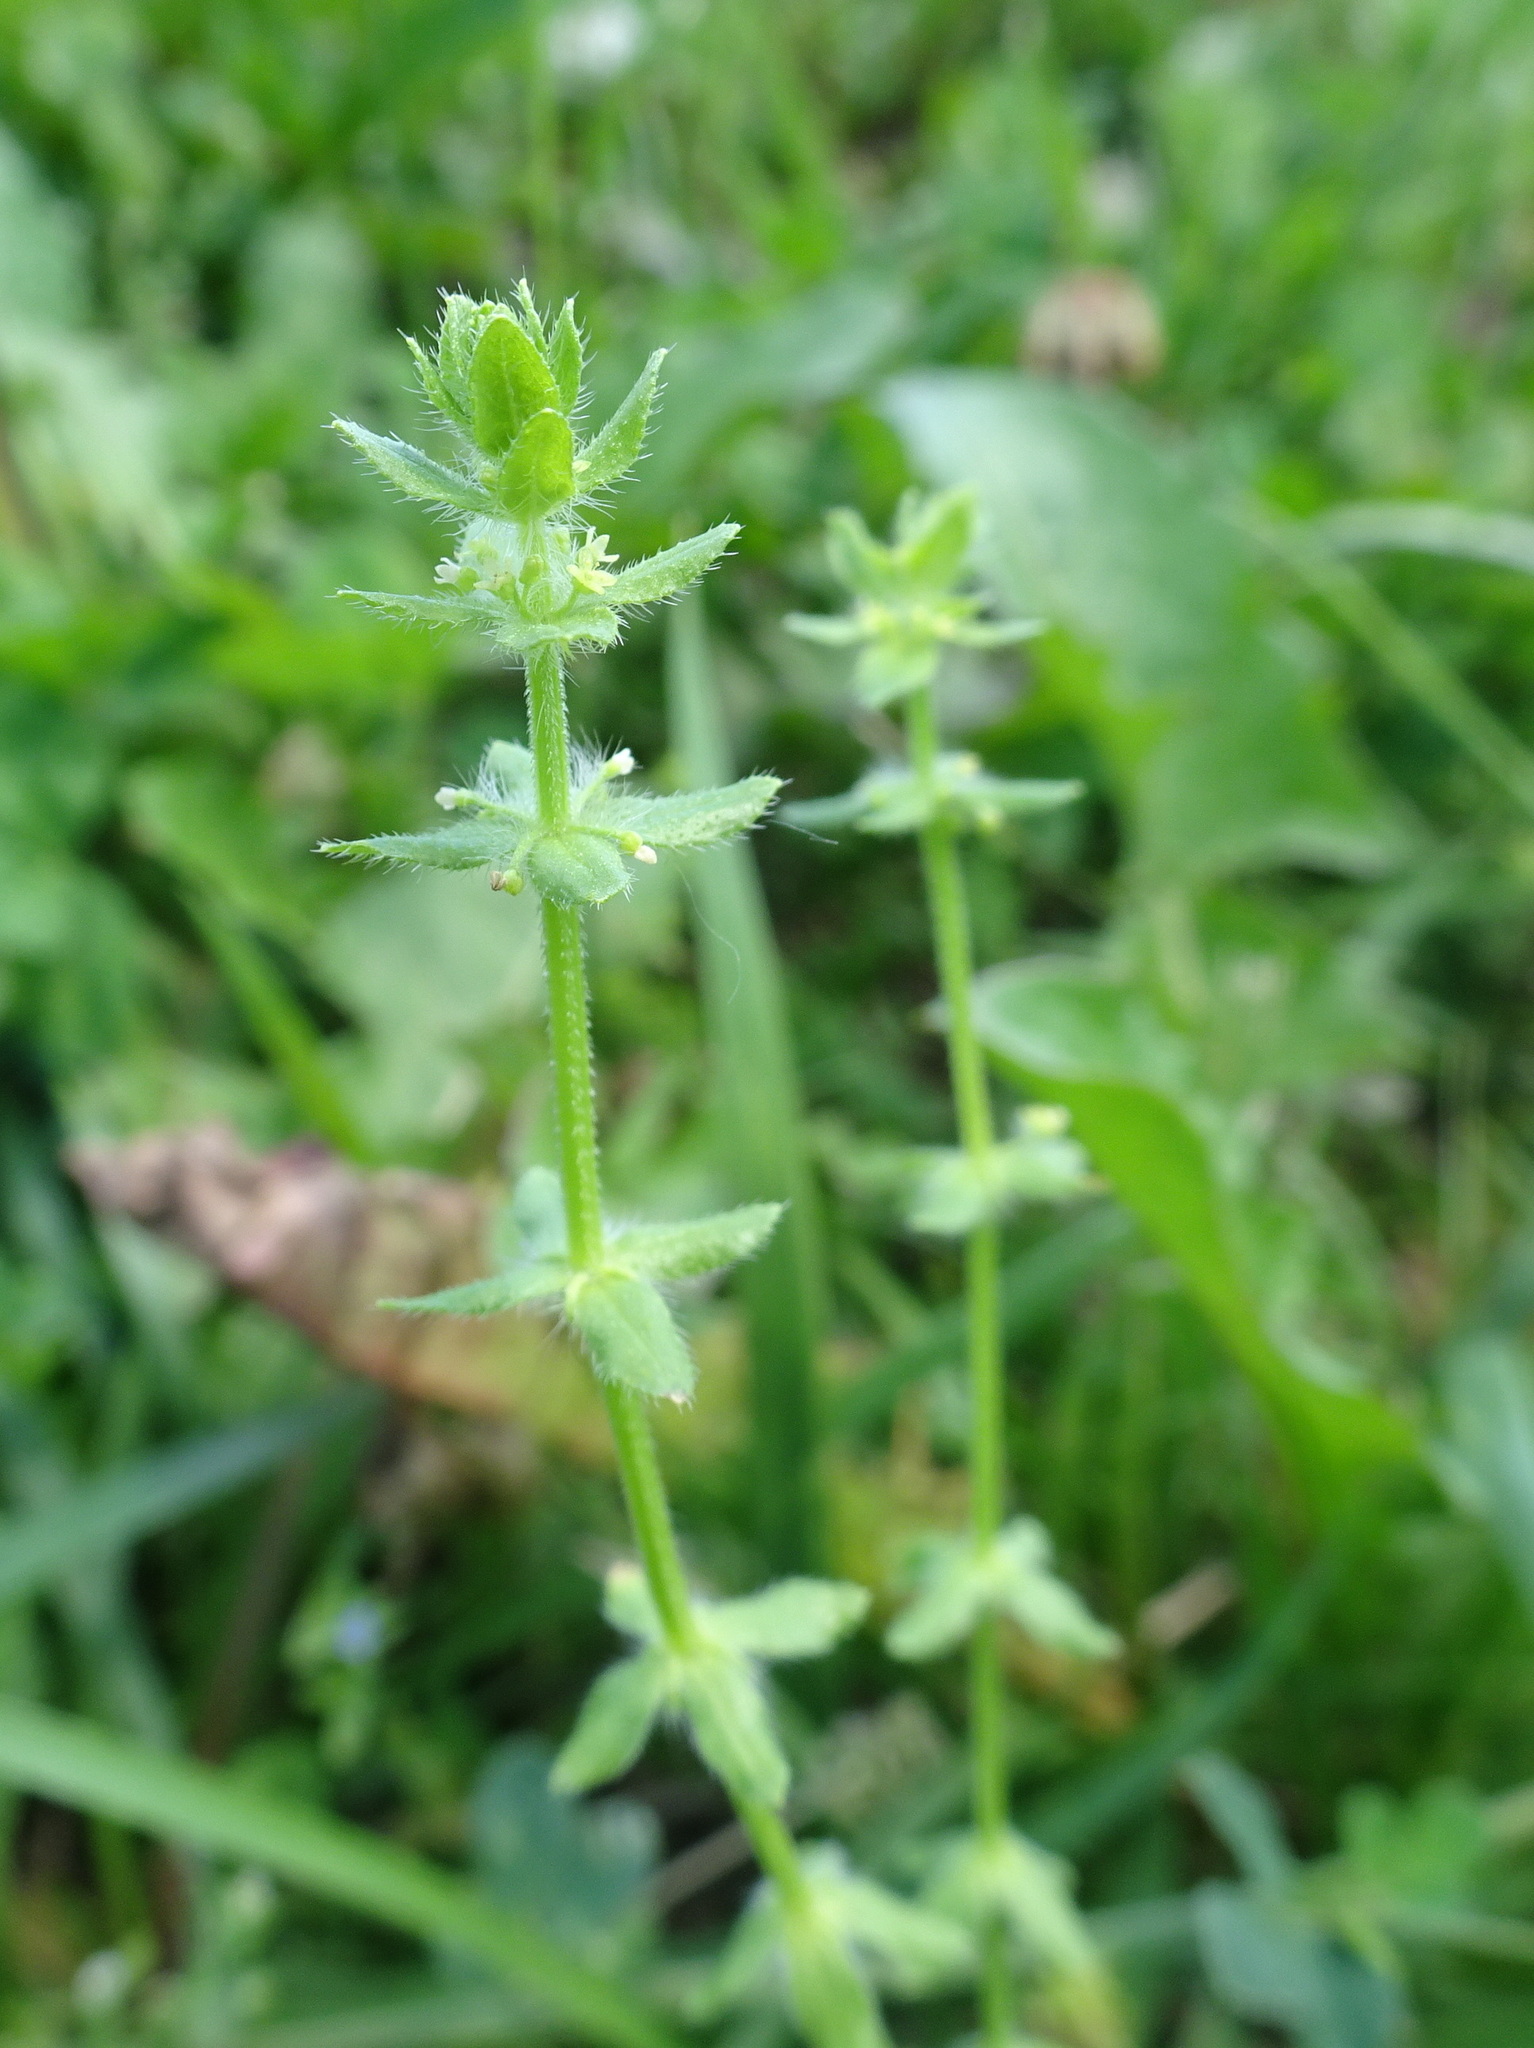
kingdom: Plantae
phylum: Tracheophyta
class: Magnoliopsida
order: Gentianales
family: Rubiaceae
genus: Cruciata
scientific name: Cruciata pedemontana
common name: Piedmont bedstraw
